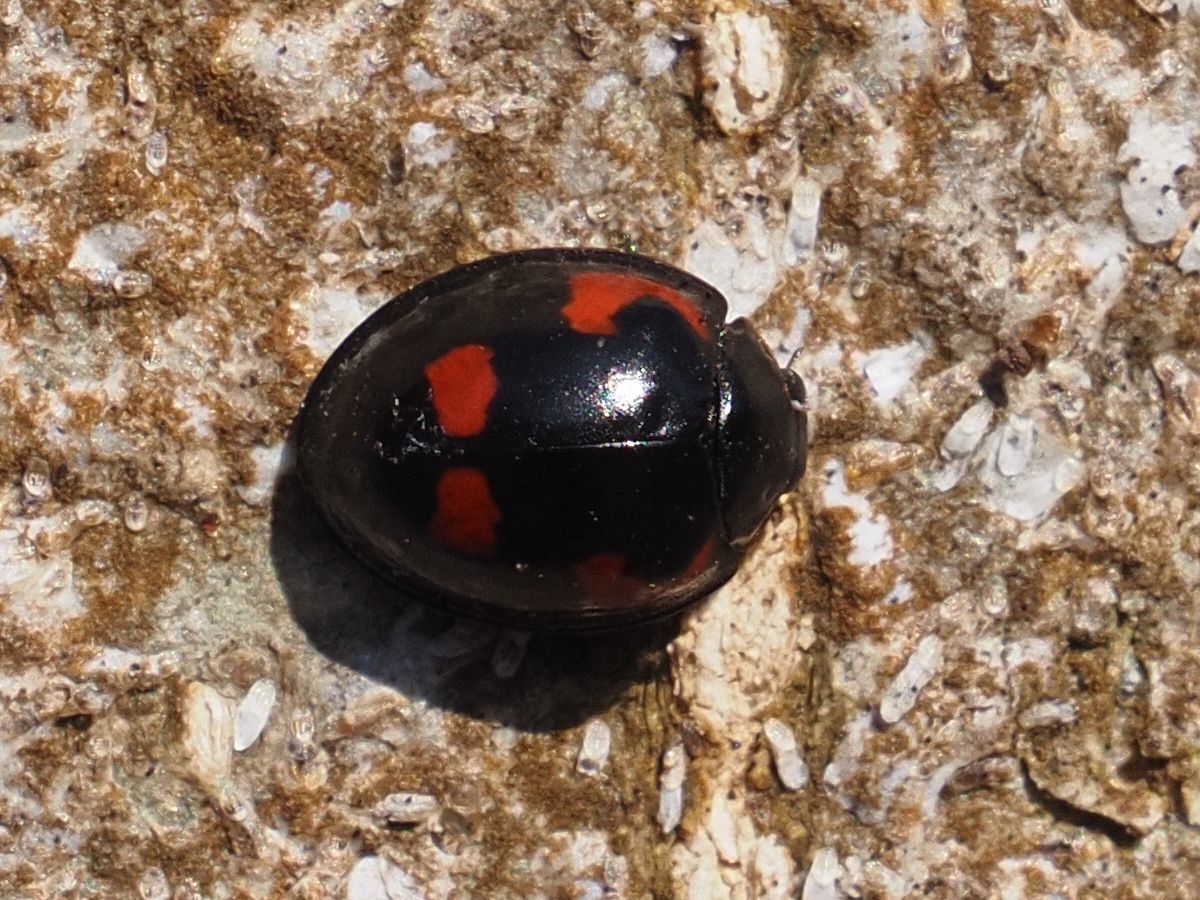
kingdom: Animalia
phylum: Arthropoda
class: Insecta
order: Coleoptera
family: Coccinellidae
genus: Brumus
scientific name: Brumus quadripustulatus
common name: Ladybird beetle
